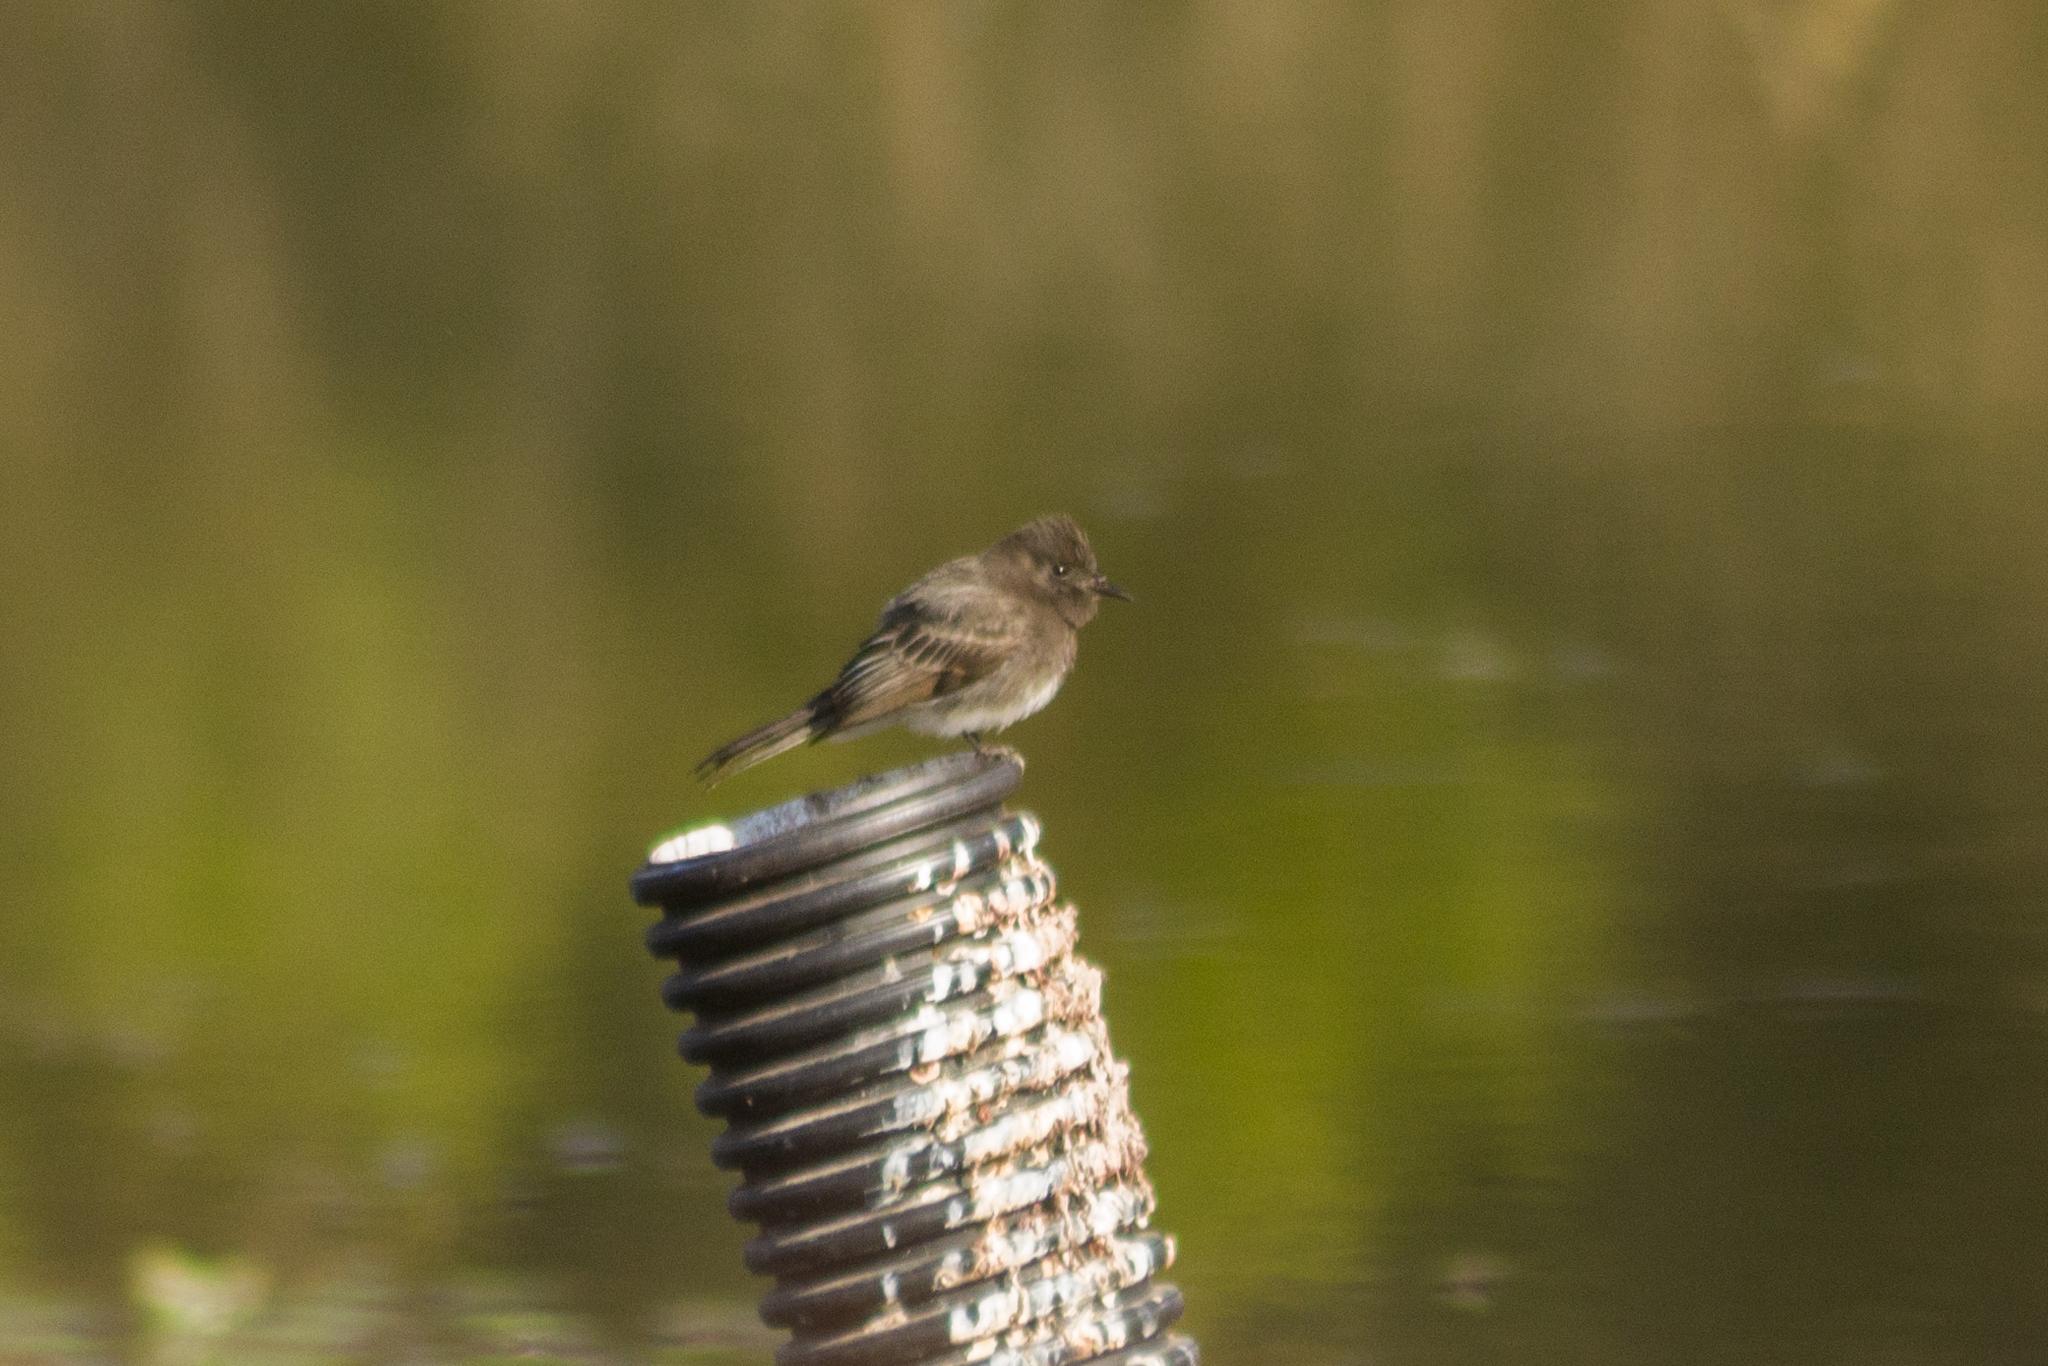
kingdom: Animalia
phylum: Chordata
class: Aves
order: Passeriformes
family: Tyrannidae
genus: Sayornis
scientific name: Sayornis nigricans
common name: Black phoebe
